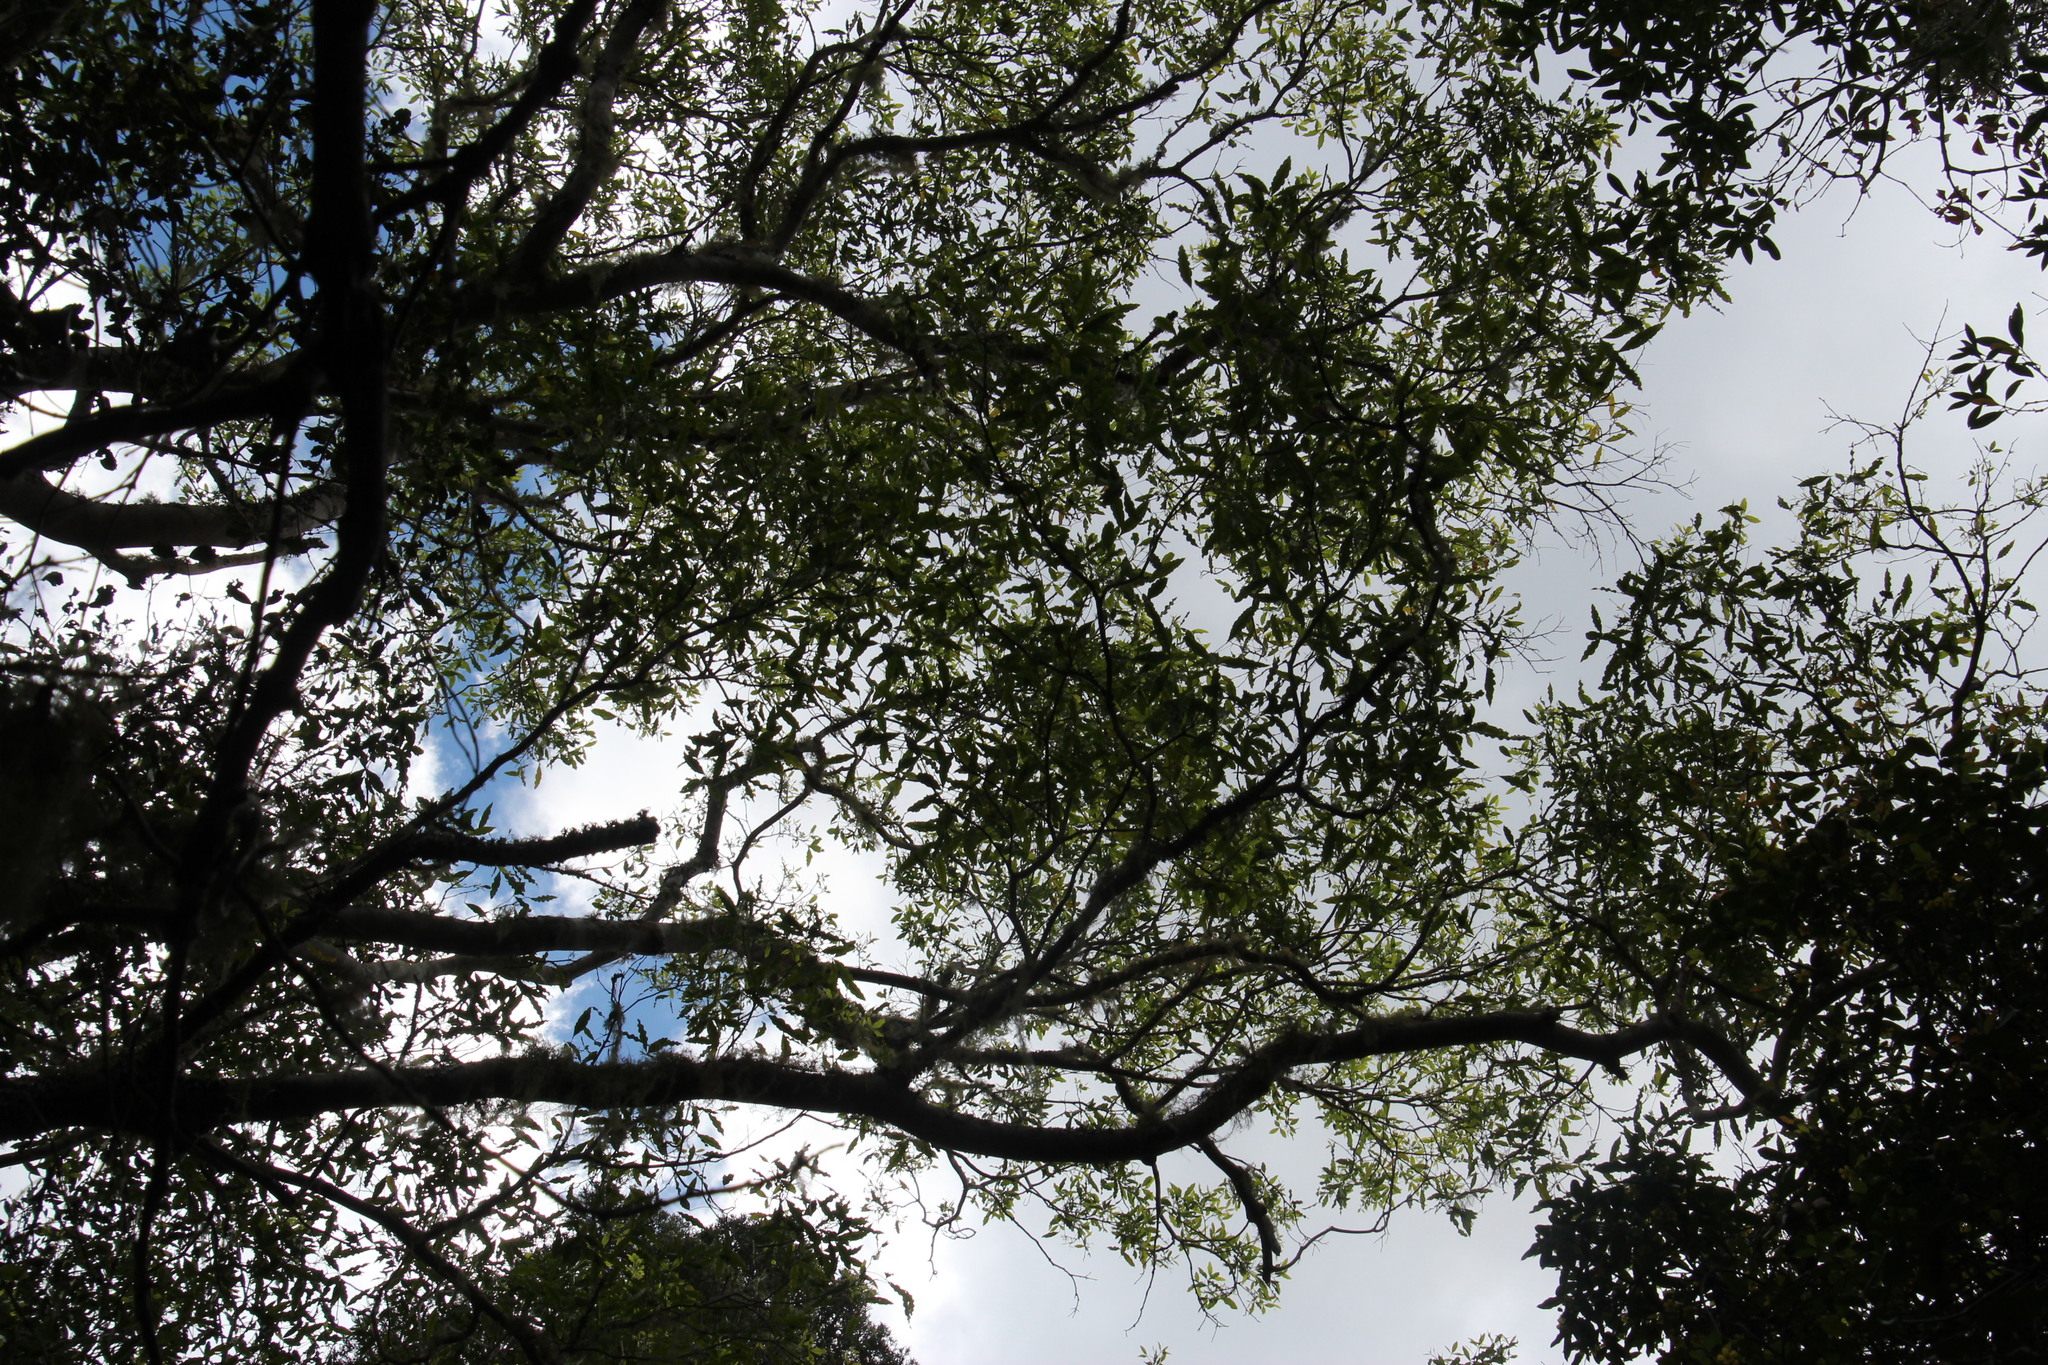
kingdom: Plantae
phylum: Tracheophyta
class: Magnoliopsida
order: Malpighiales
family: Ochnaceae
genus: Ochna
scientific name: Ochna arborea
